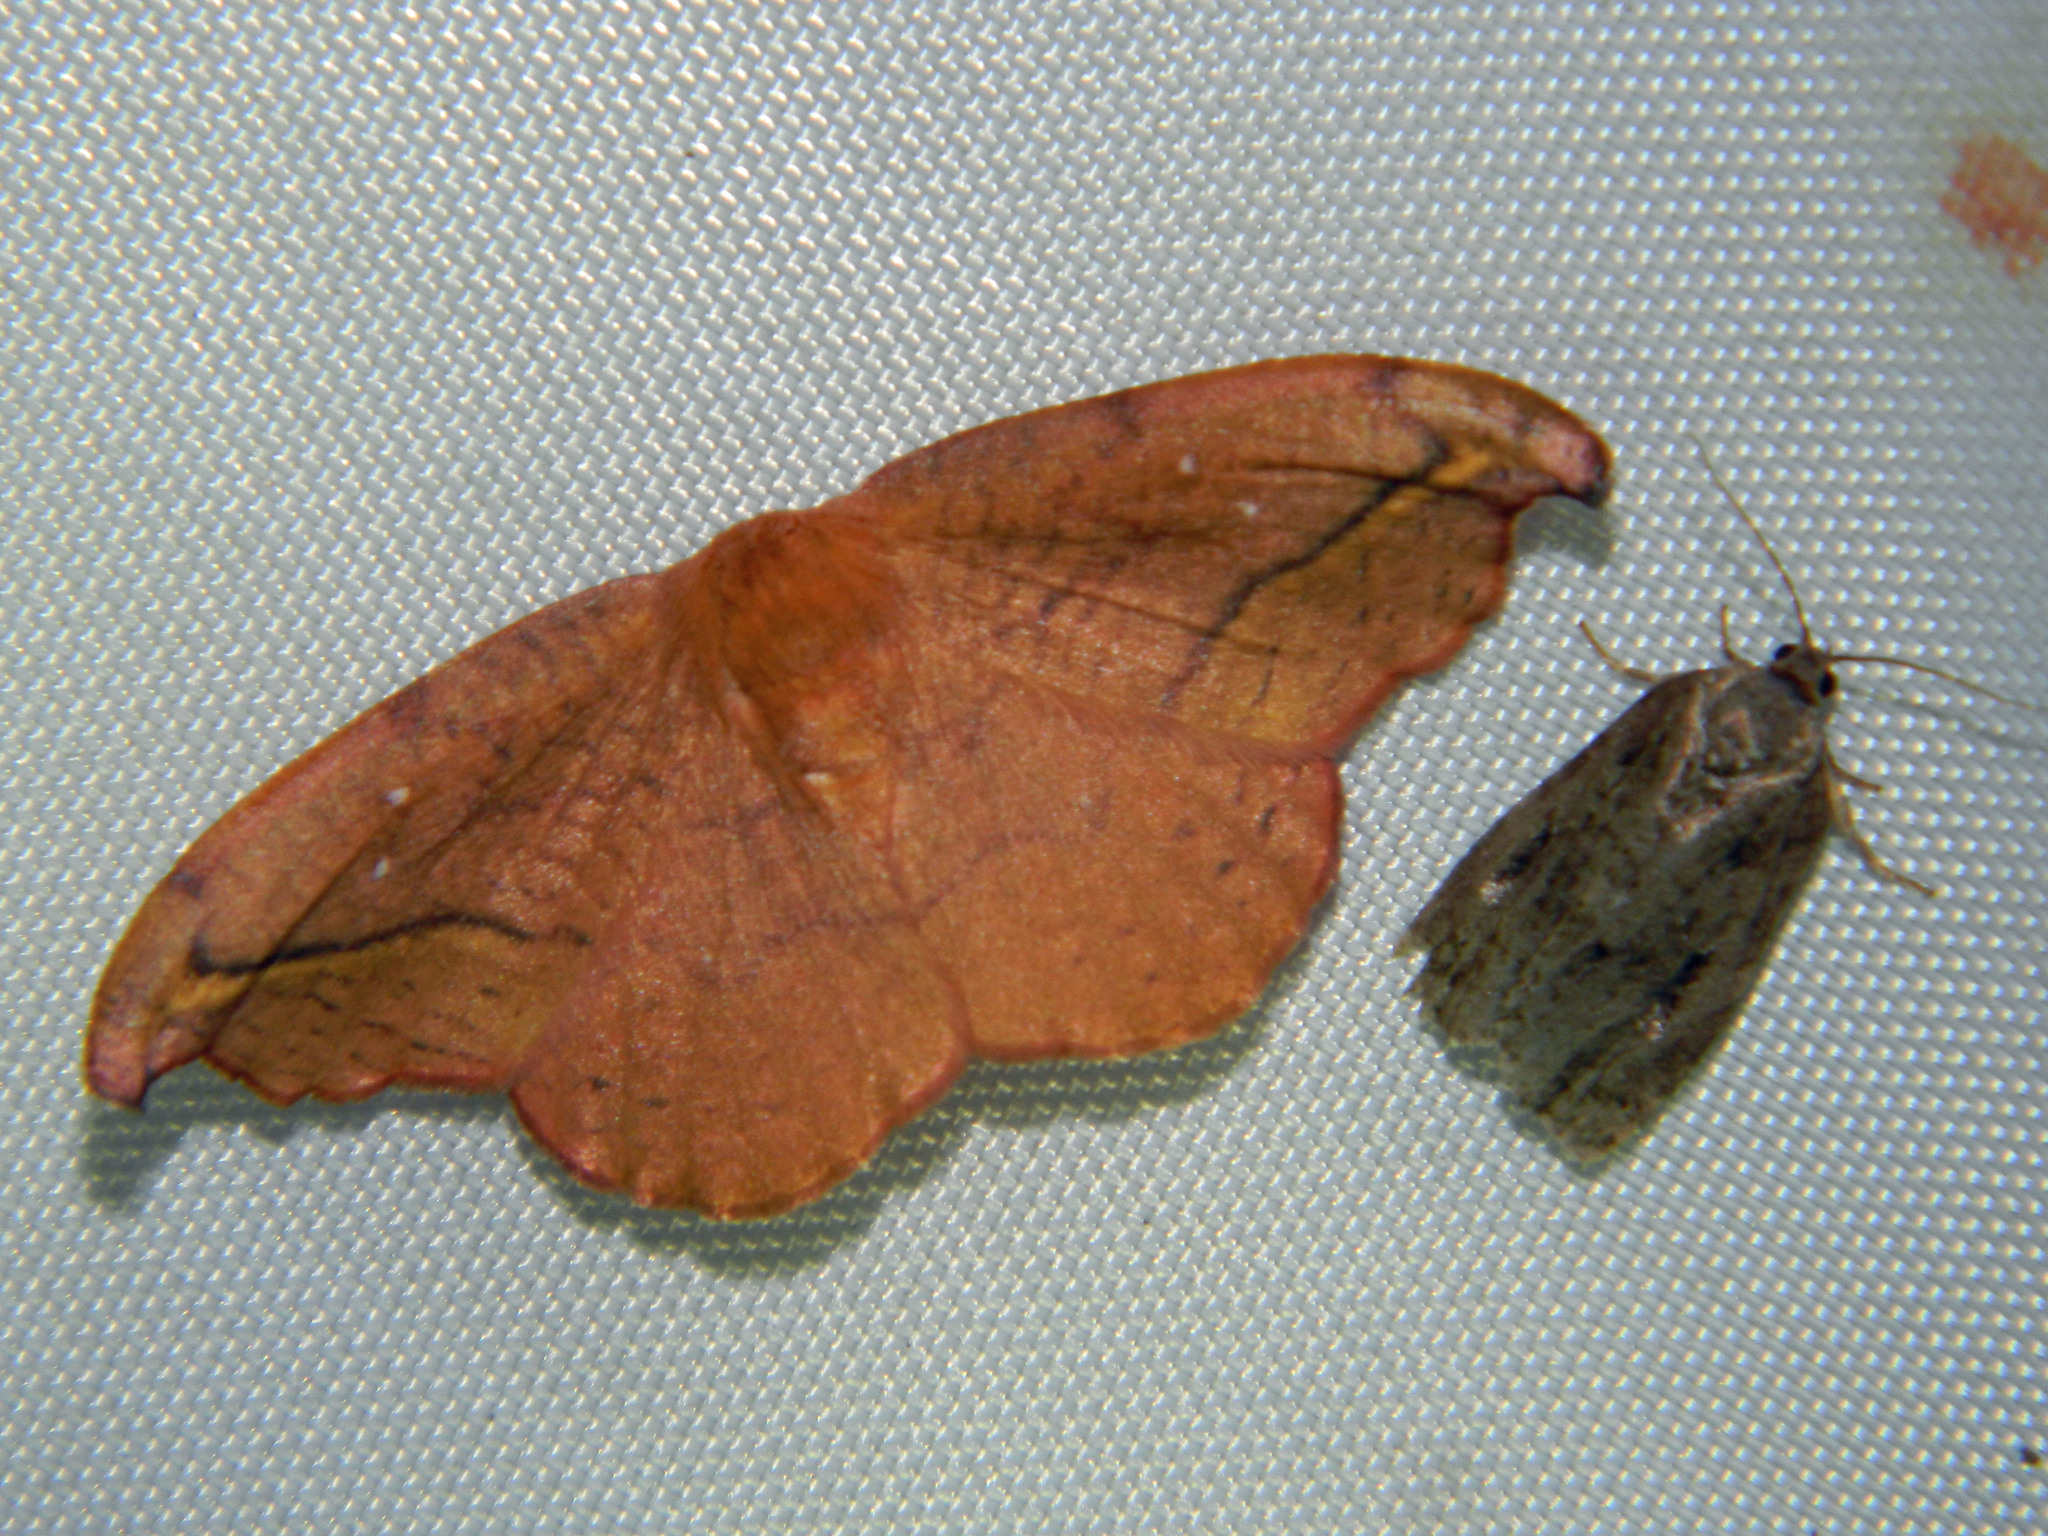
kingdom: Animalia
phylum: Arthropoda
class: Insecta
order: Lepidoptera
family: Drepanidae
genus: Oreta
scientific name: Oreta rosea
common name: Rose hooktip
